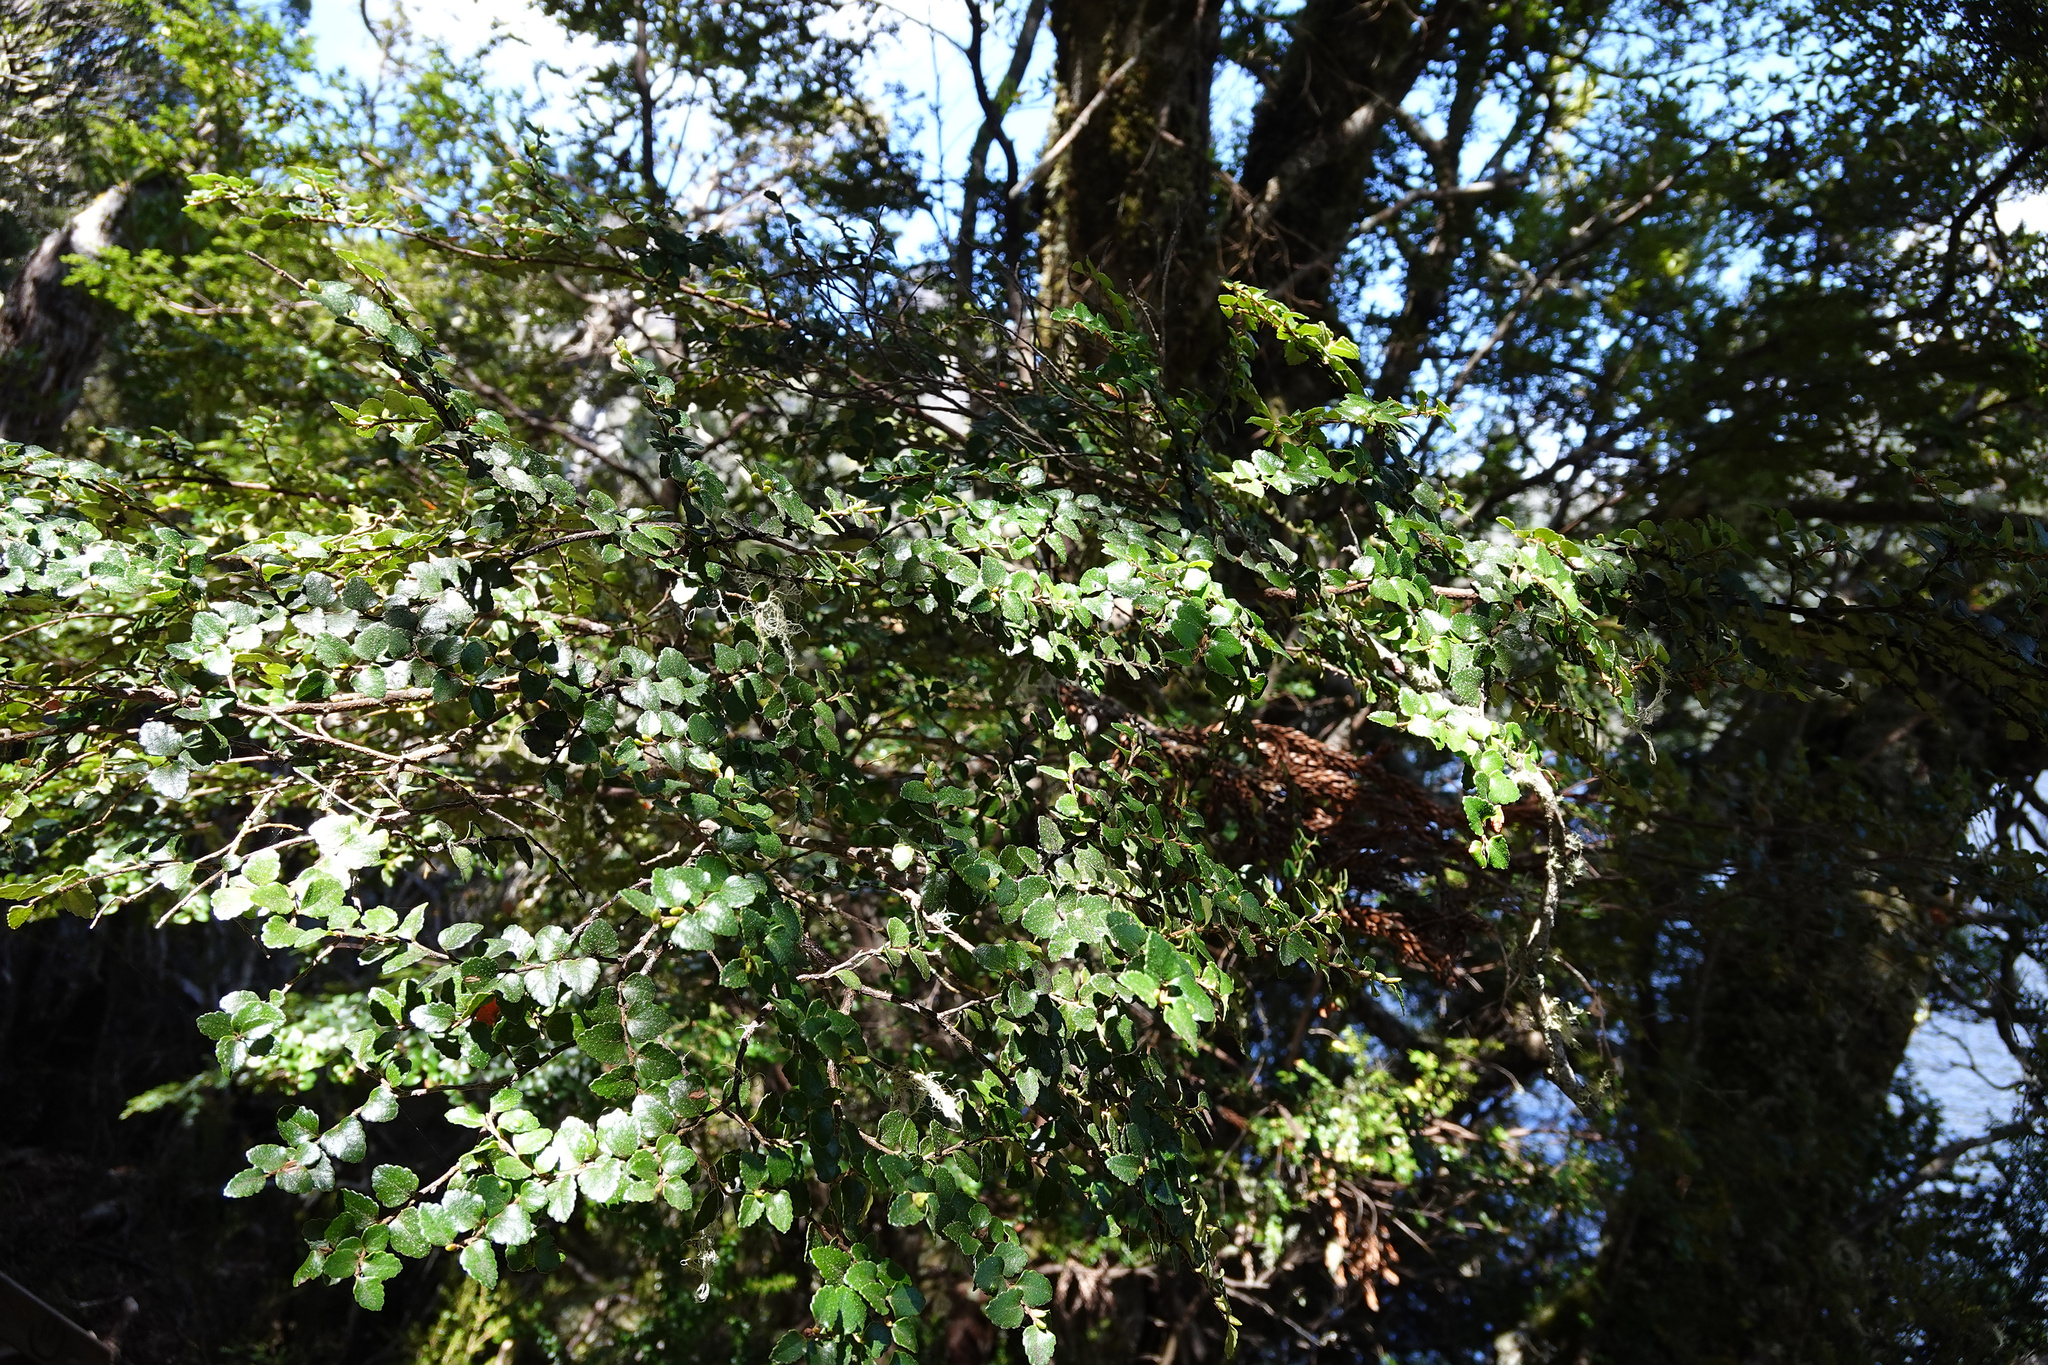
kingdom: Plantae
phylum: Tracheophyta
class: Magnoliopsida
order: Fagales
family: Nothofagaceae
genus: Nothofagus
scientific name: Nothofagus cunninghamii
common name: Myrtle beech
